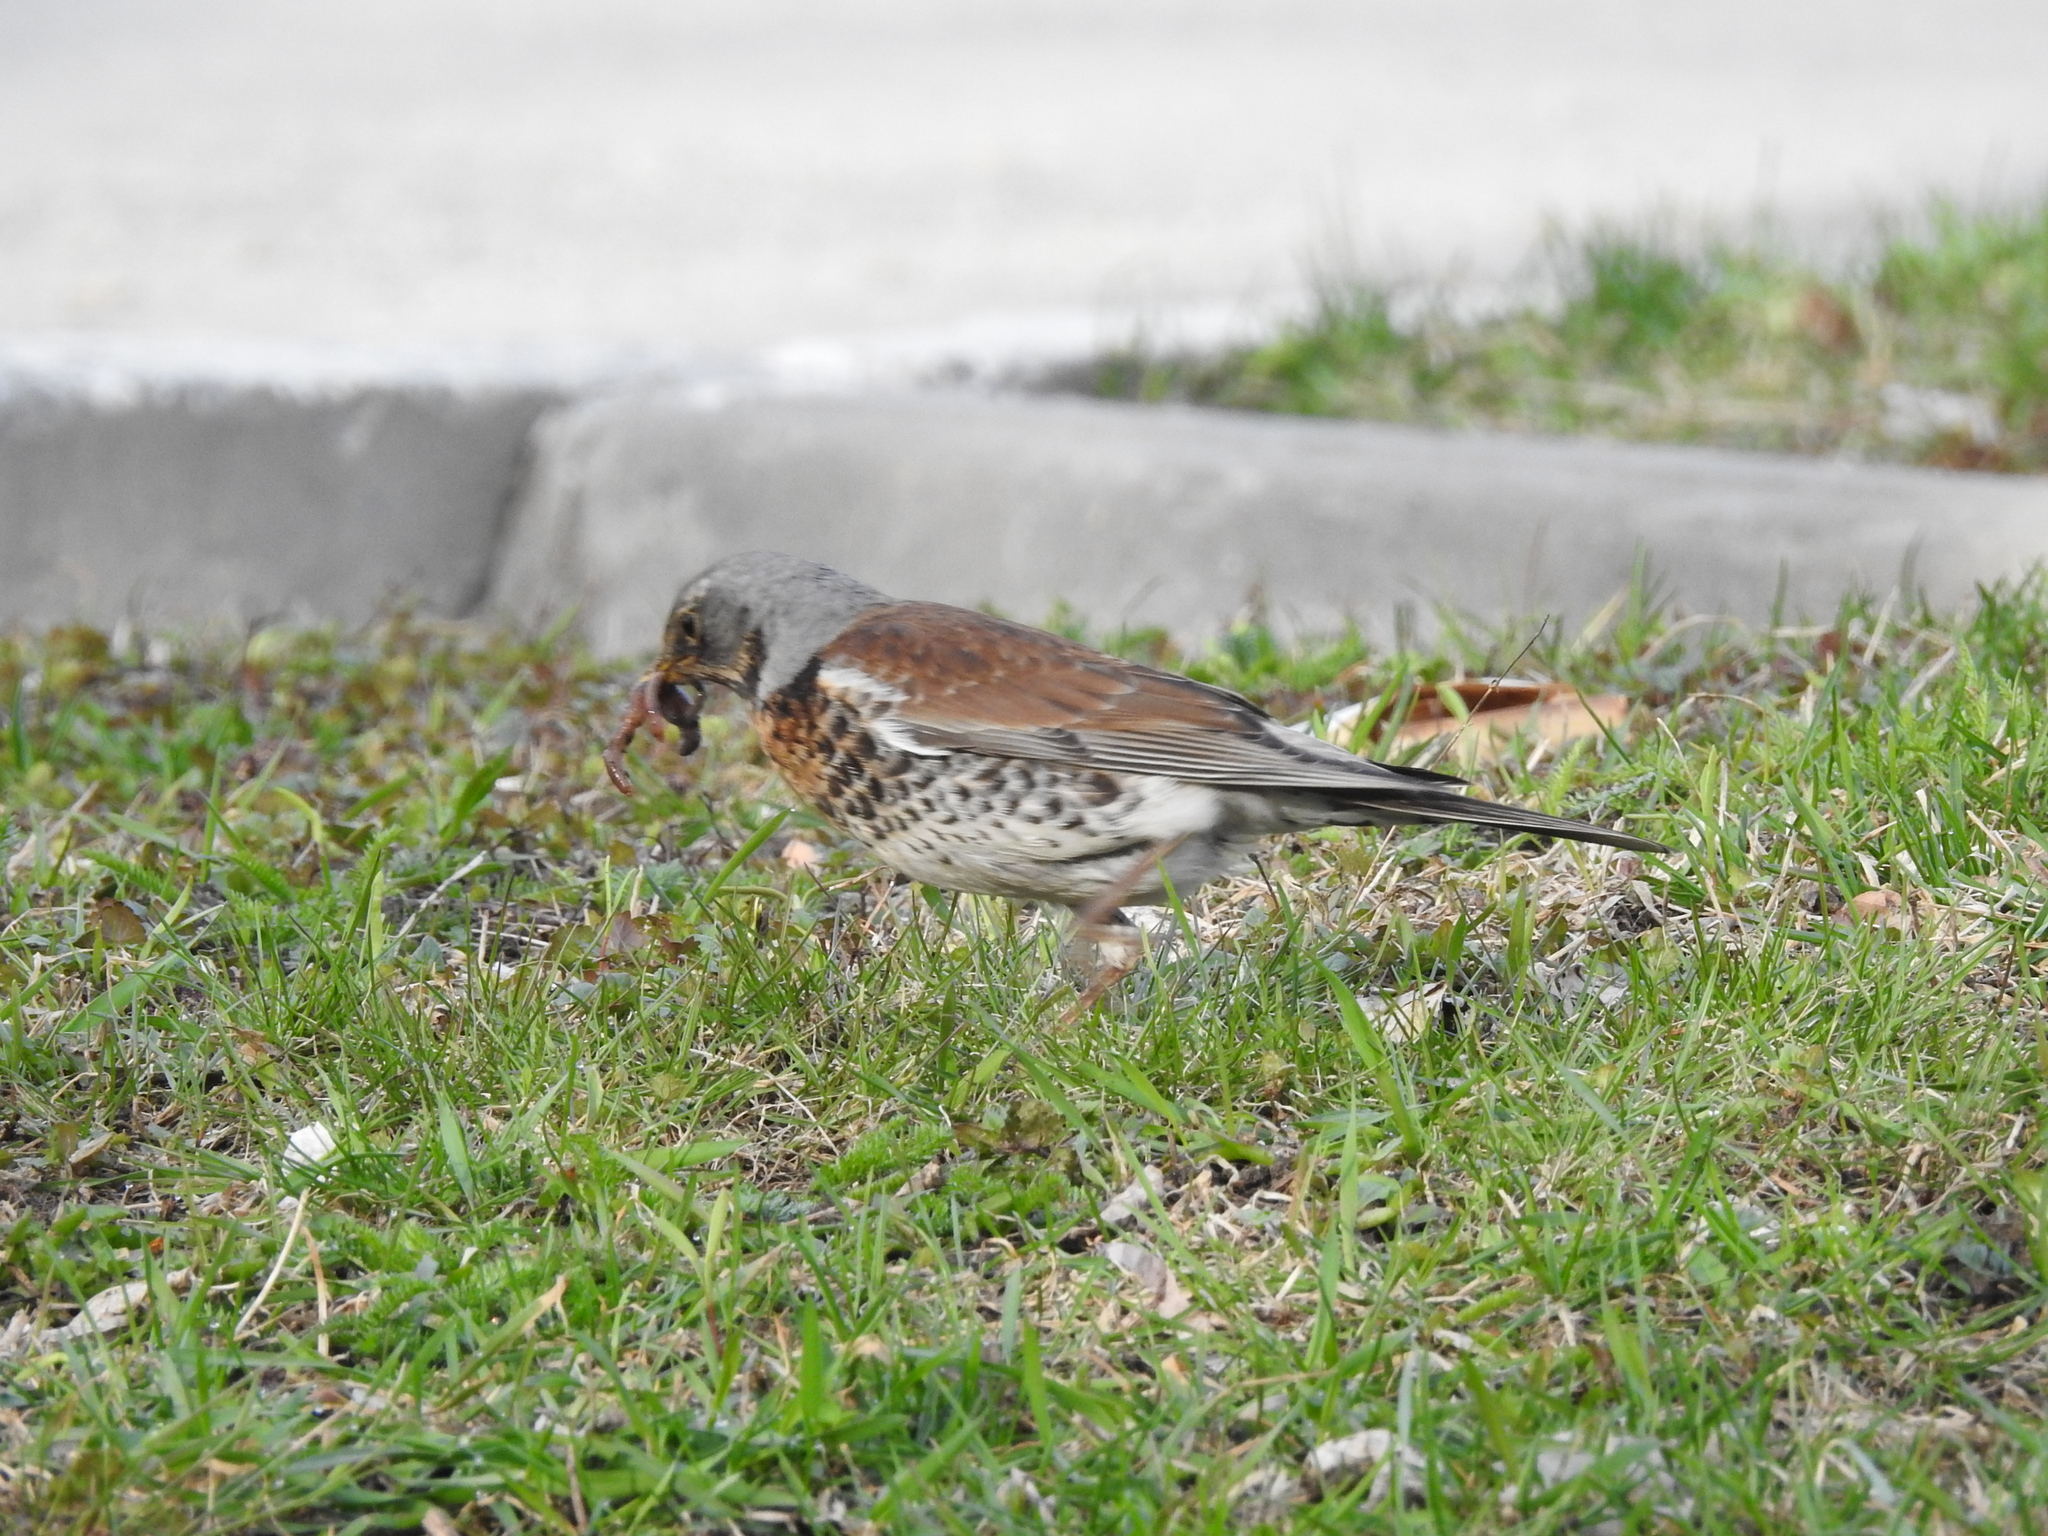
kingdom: Animalia
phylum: Chordata
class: Aves
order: Passeriformes
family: Turdidae
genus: Turdus
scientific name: Turdus pilaris
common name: Fieldfare
